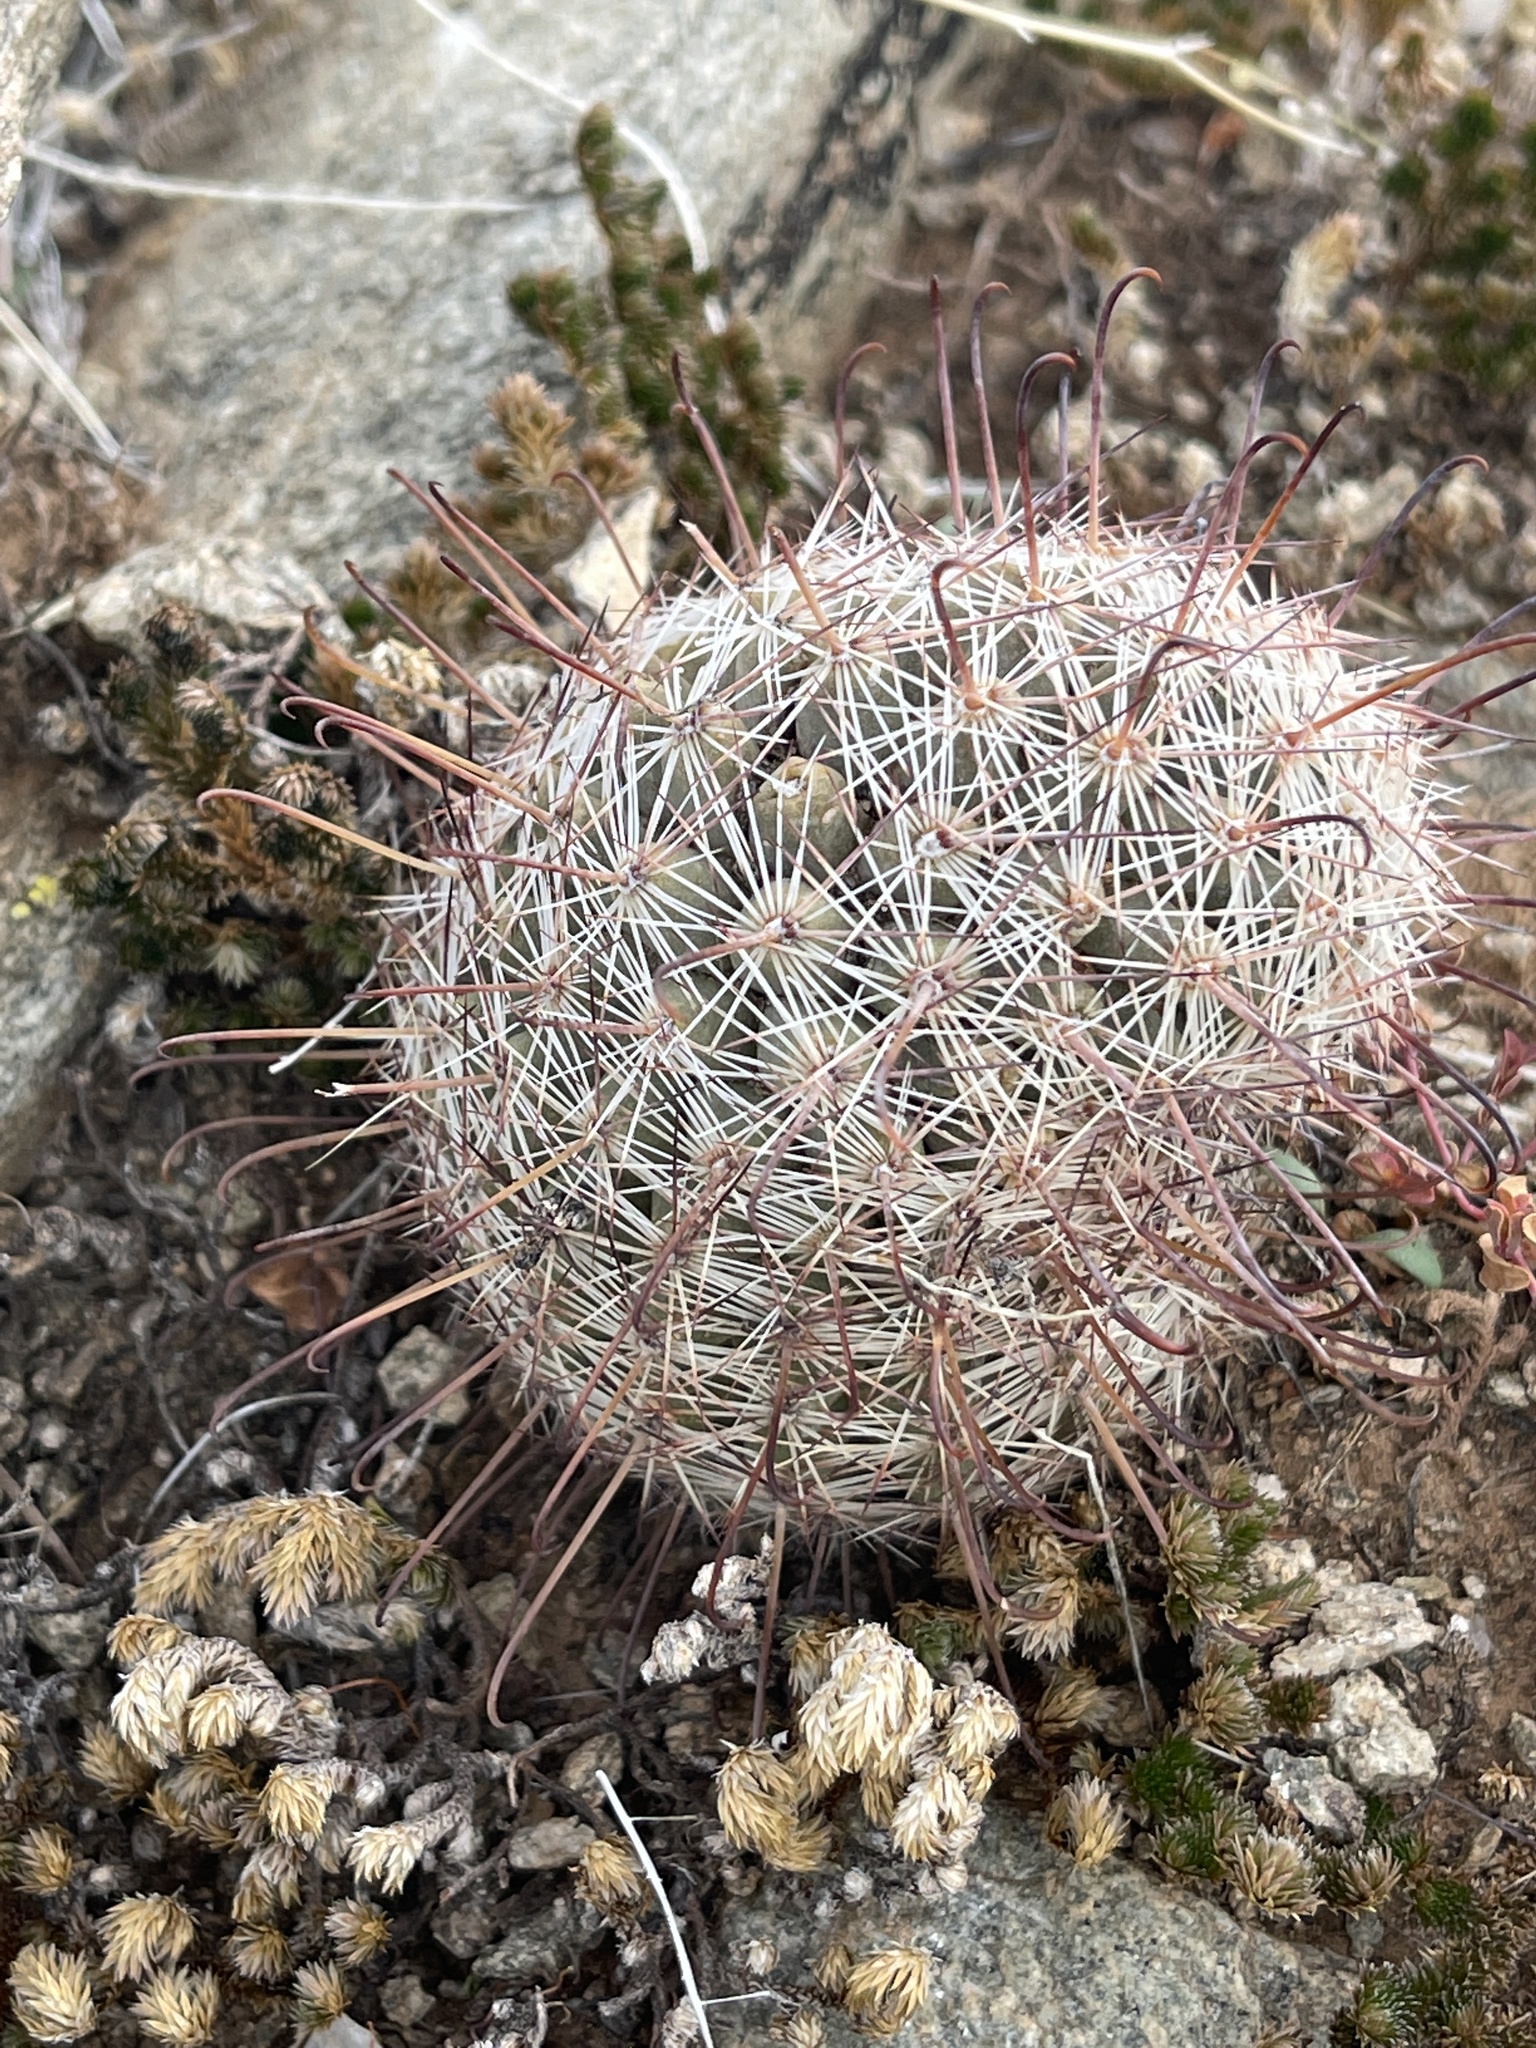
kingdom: Plantae
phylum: Tracheophyta
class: Magnoliopsida
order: Caryophyllales
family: Cactaceae
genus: Cochemiea
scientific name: Cochemiea grahamii
